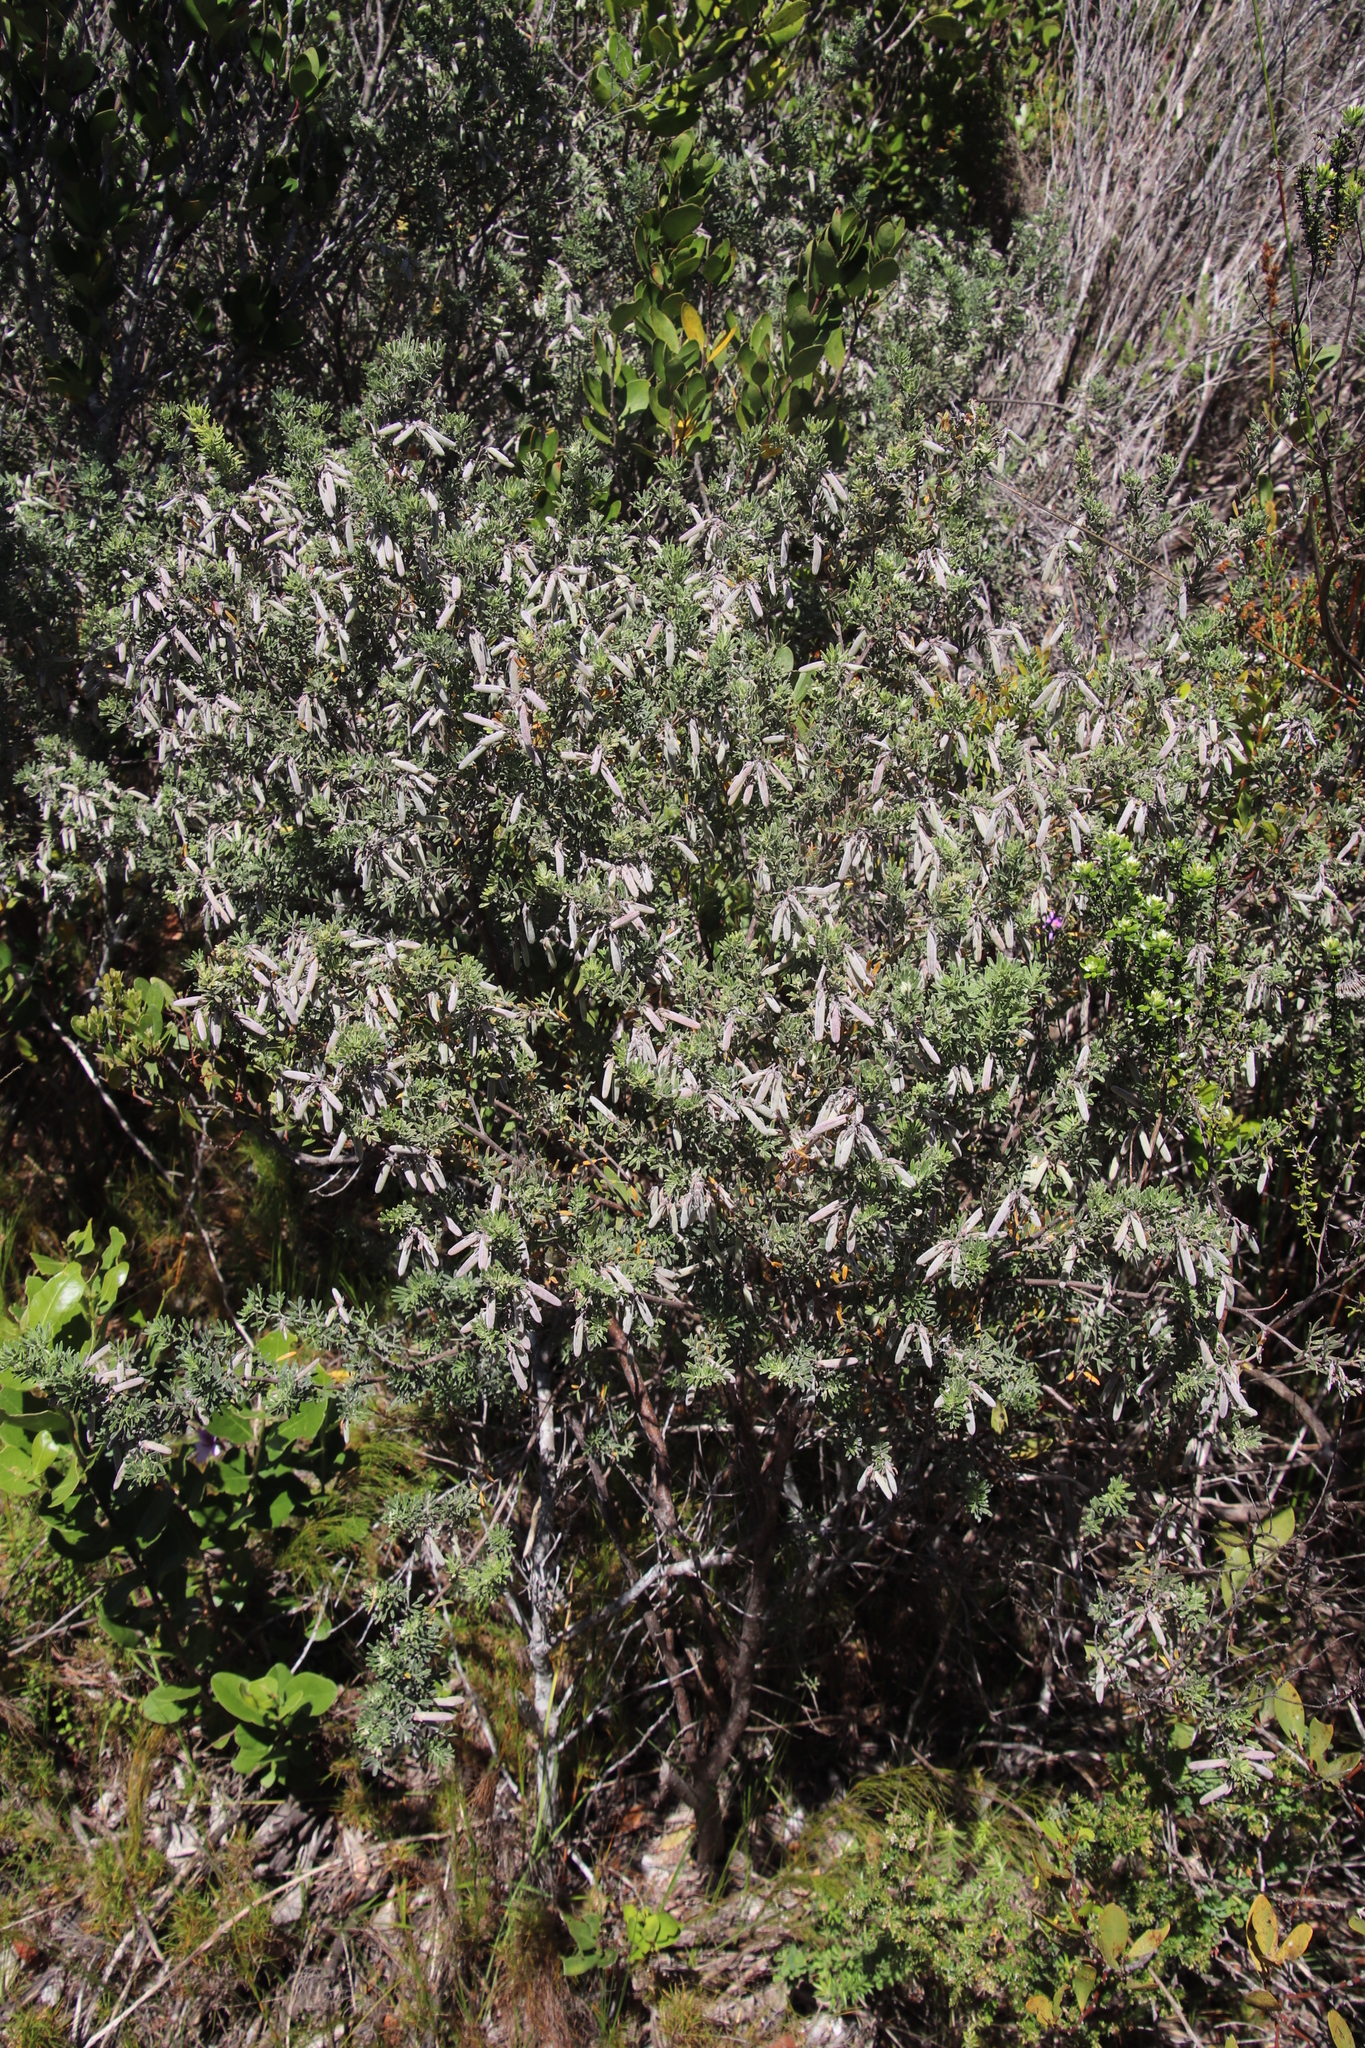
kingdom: Plantae
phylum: Tracheophyta
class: Magnoliopsida
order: Fabales
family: Fabaceae
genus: Indigofera
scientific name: Indigofera brachystachya
